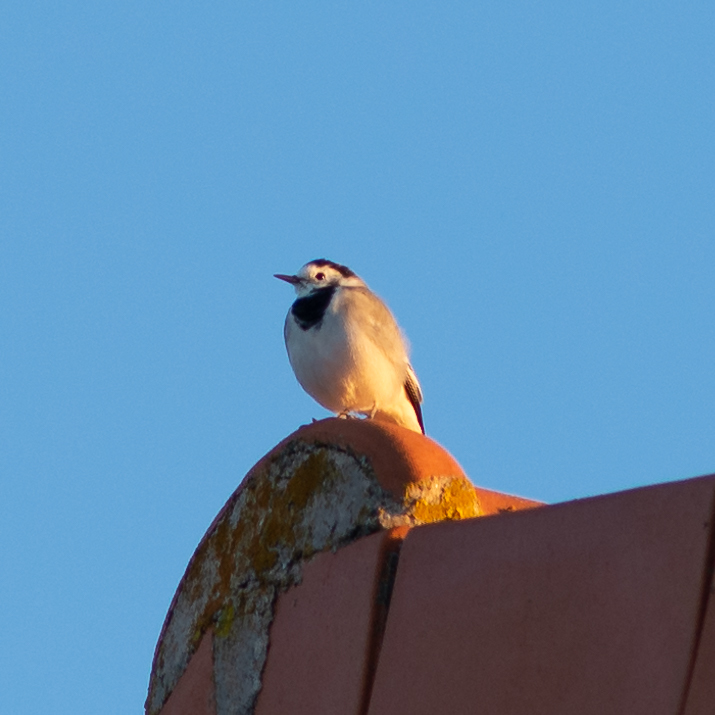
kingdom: Animalia
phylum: Chordata
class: Aves
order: Passeriformes
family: Motacillidae
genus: Motacilla
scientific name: Motacilla alba
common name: White wagtail
